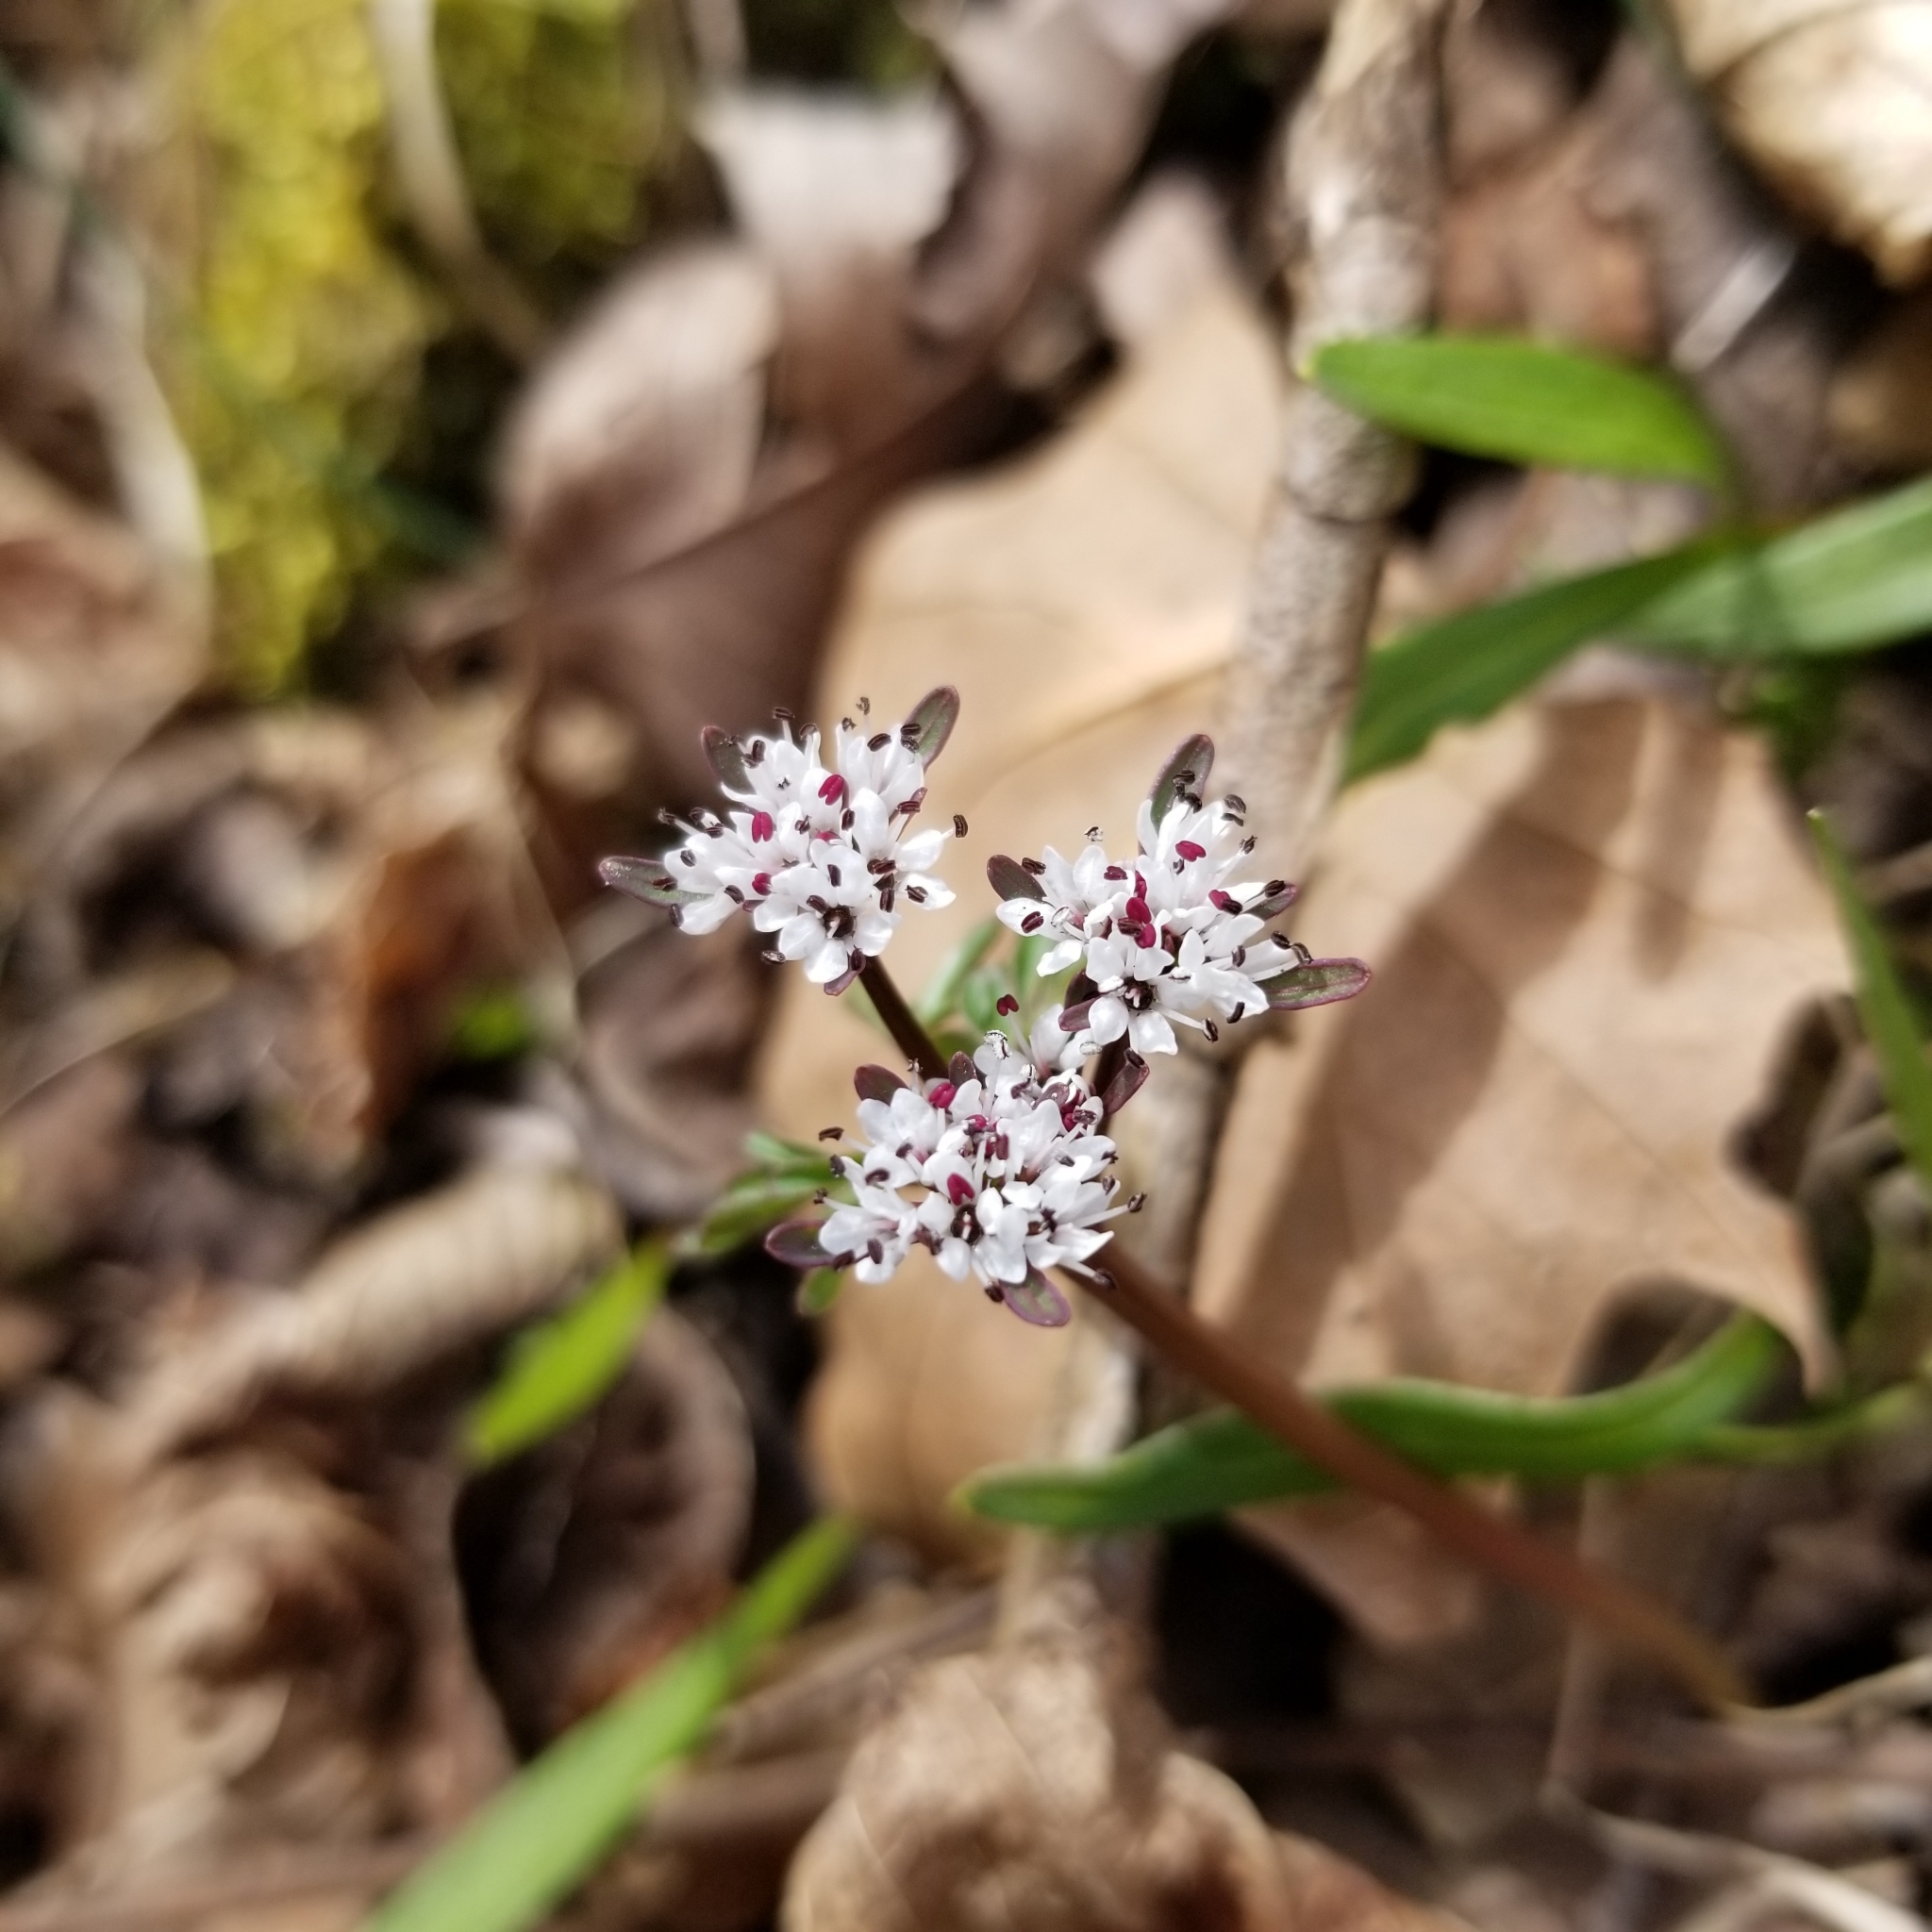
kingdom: Plantae
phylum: Tracheophyta
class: Magnoliopsida
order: Apiales
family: Apiaceae
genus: Erigenia
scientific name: Erigenia bulbosa
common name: Pepper-and-salt
